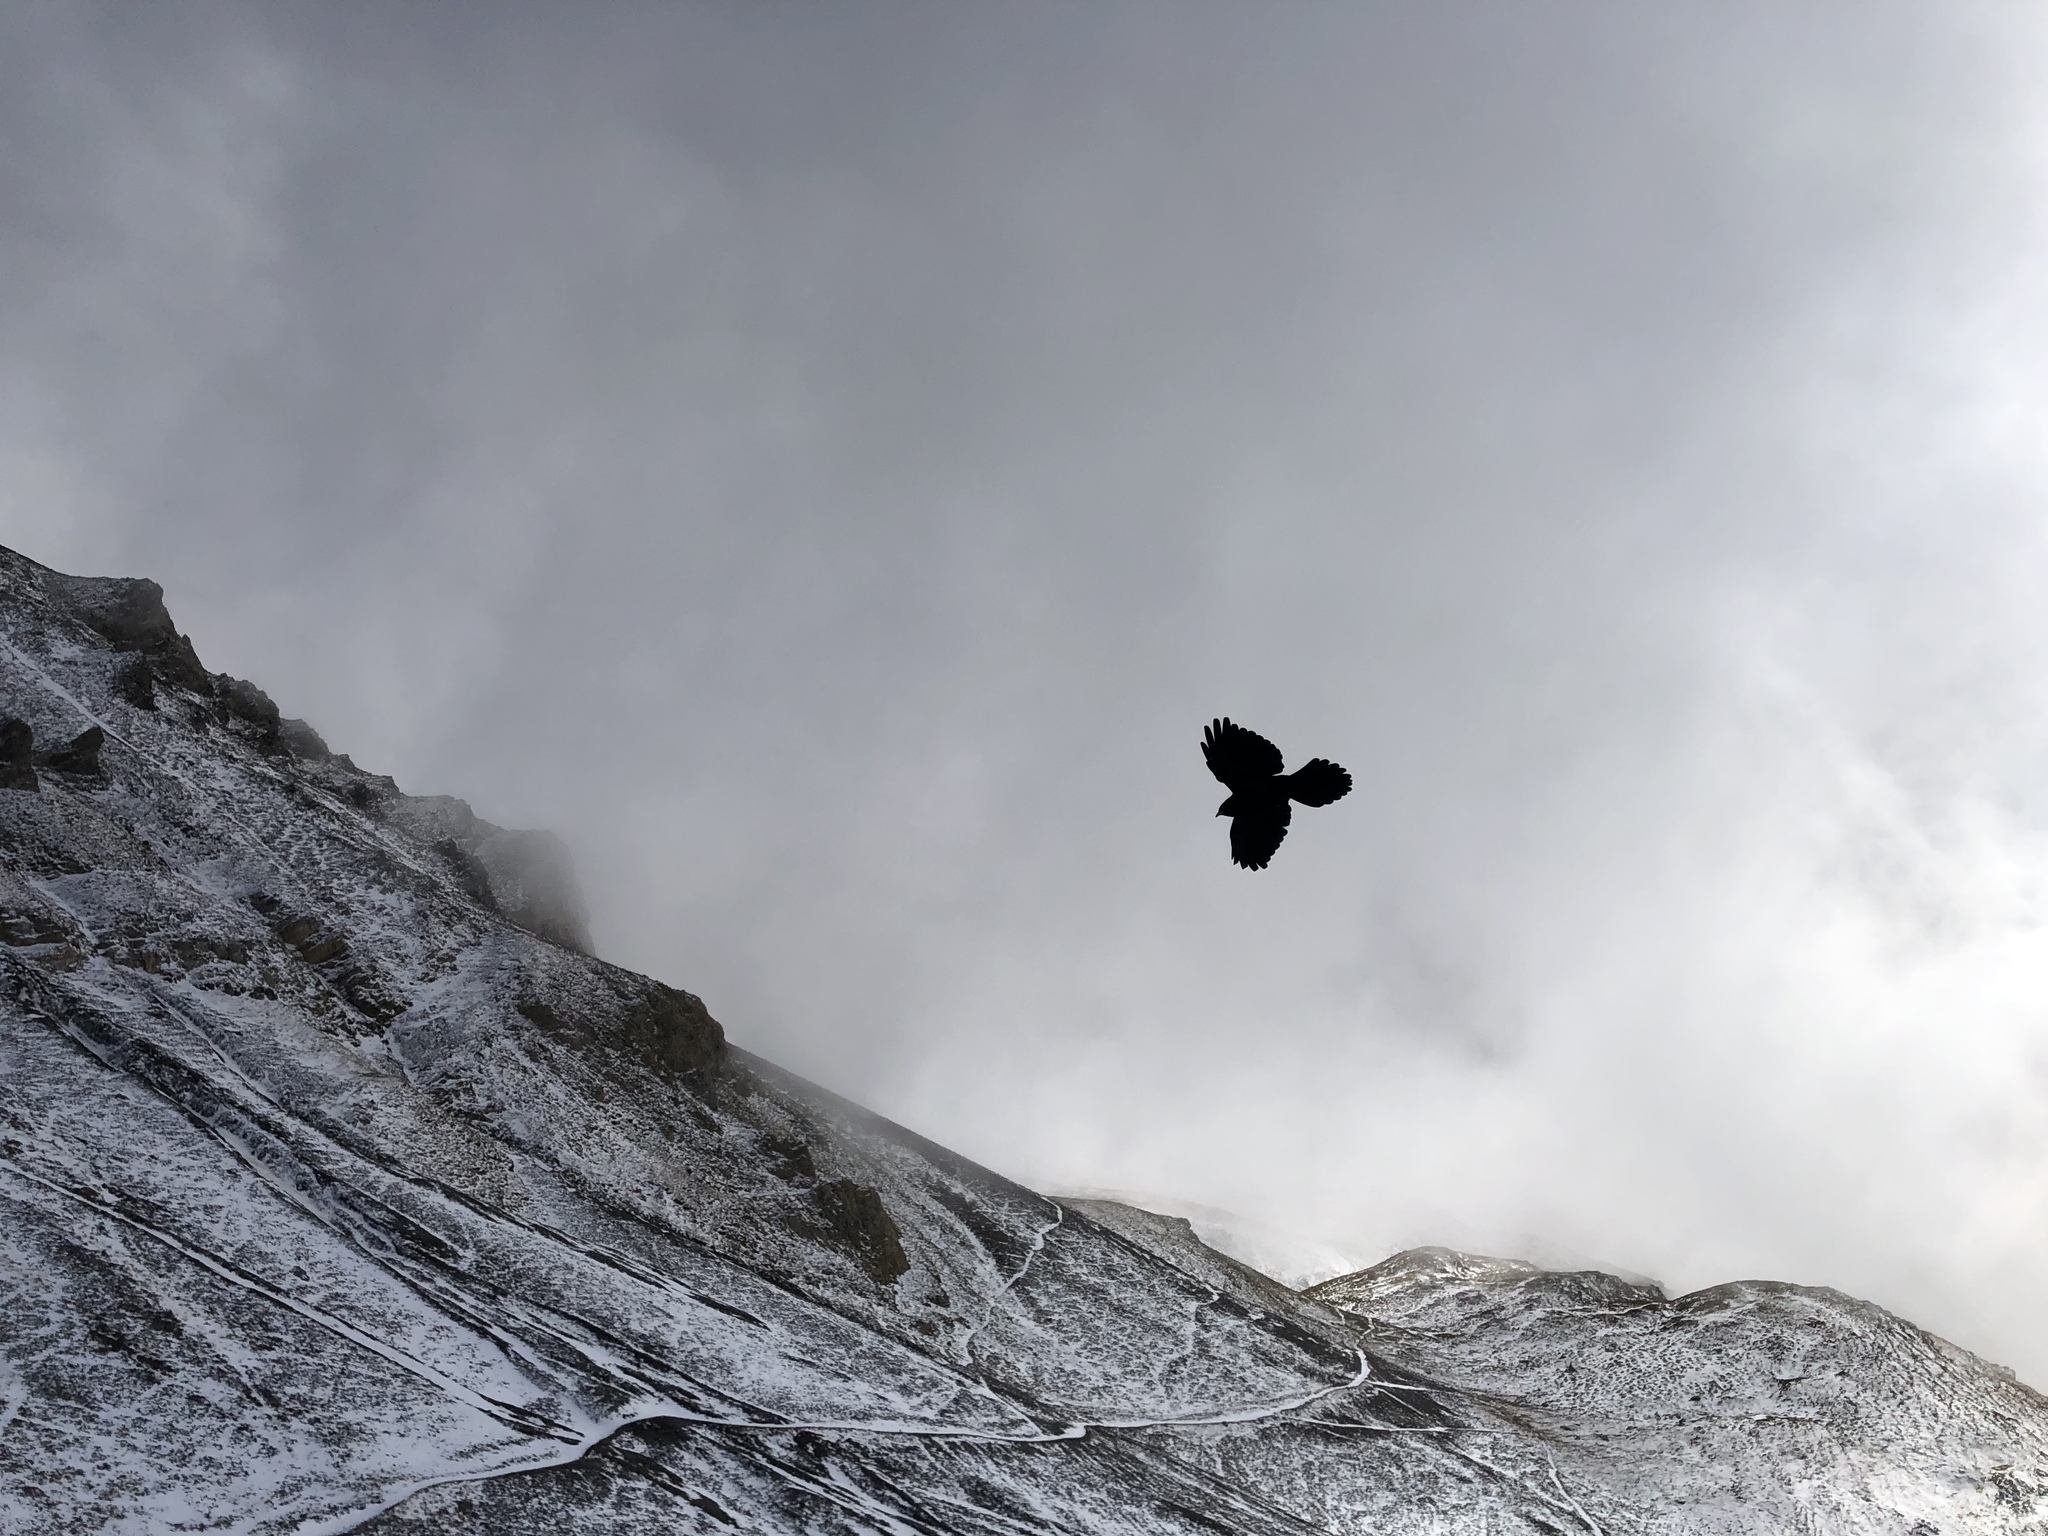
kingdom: Animalia
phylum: Chordata
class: Aves
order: Passeriformes
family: Corvidae
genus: Pyrrhocorax
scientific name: Pyrrhocorax graculus
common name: Alpine chough
